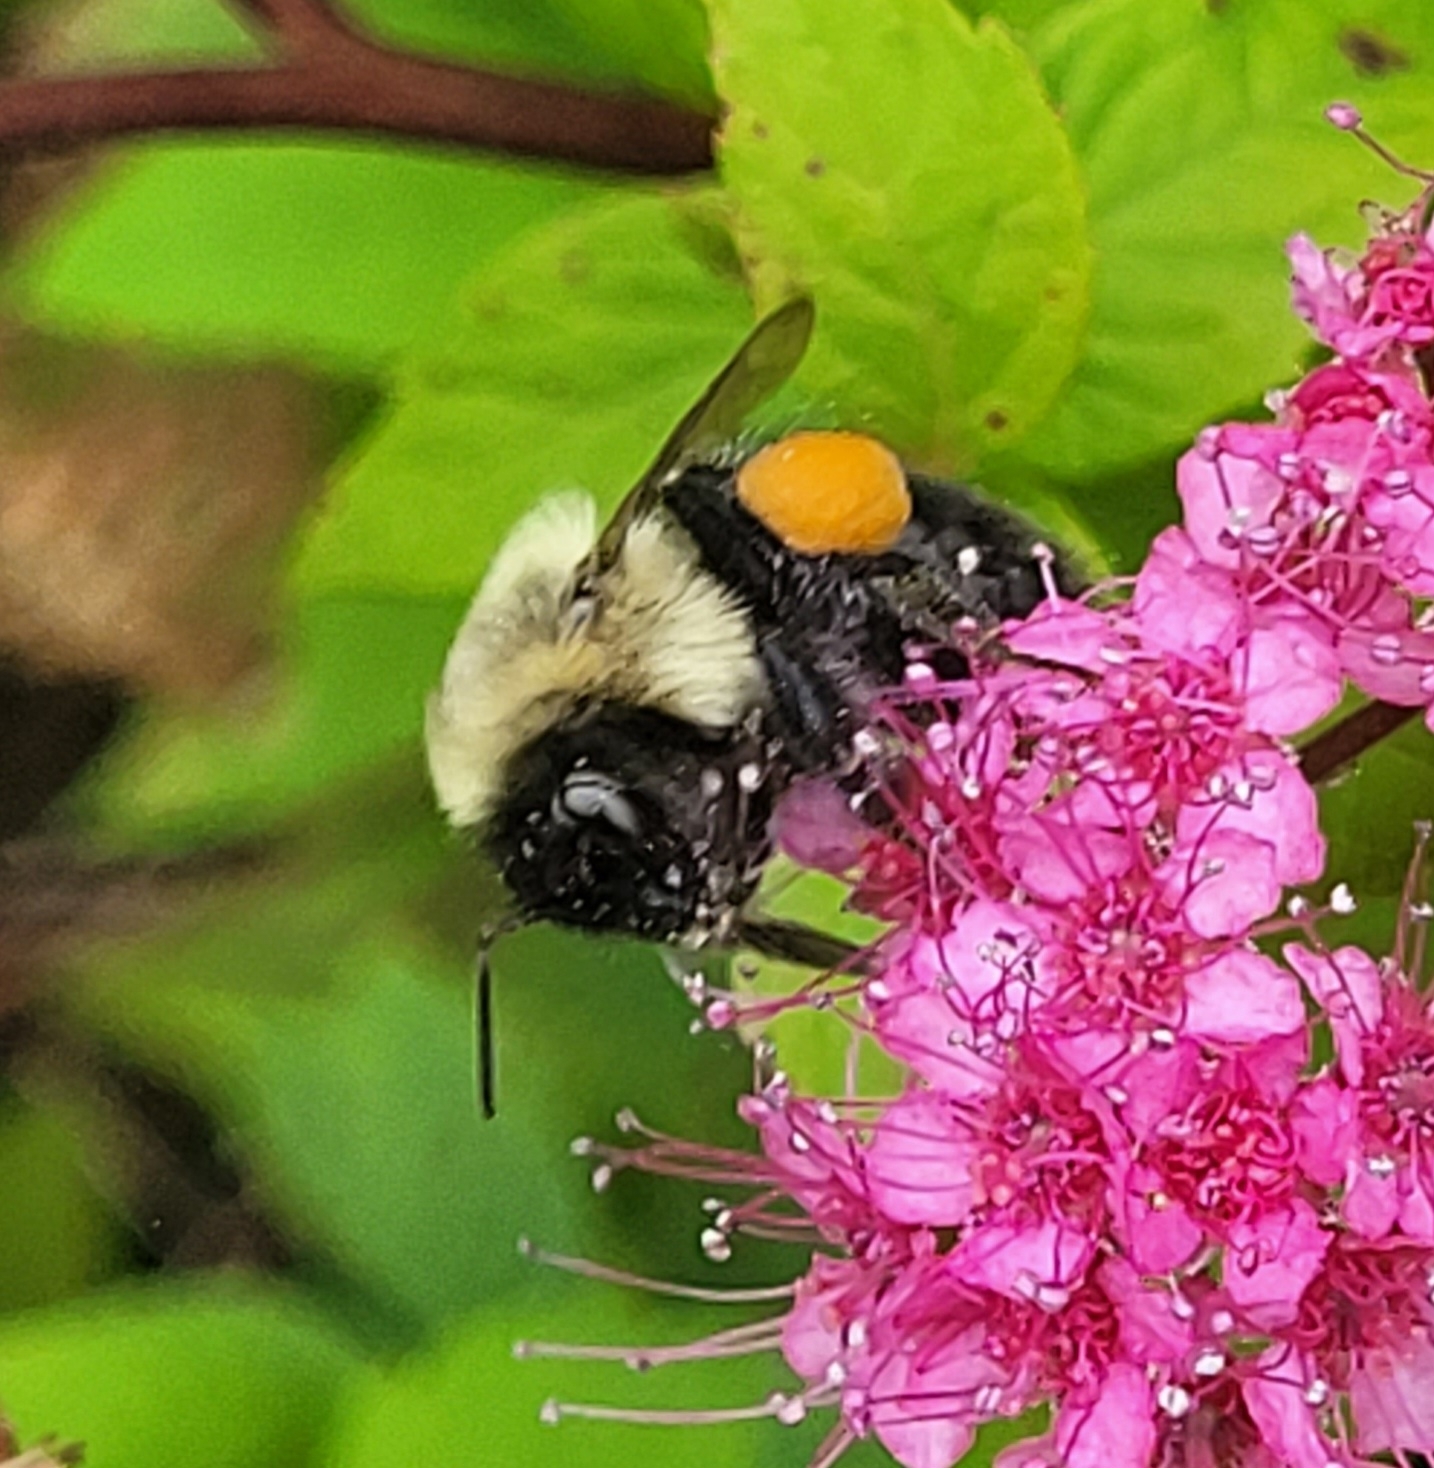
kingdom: Animalia
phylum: Arthropoda
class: Insecta
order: Hymenoptera
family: Apidae
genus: Bombus
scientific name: Bombus impatiens
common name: Common eastern bumble bee
